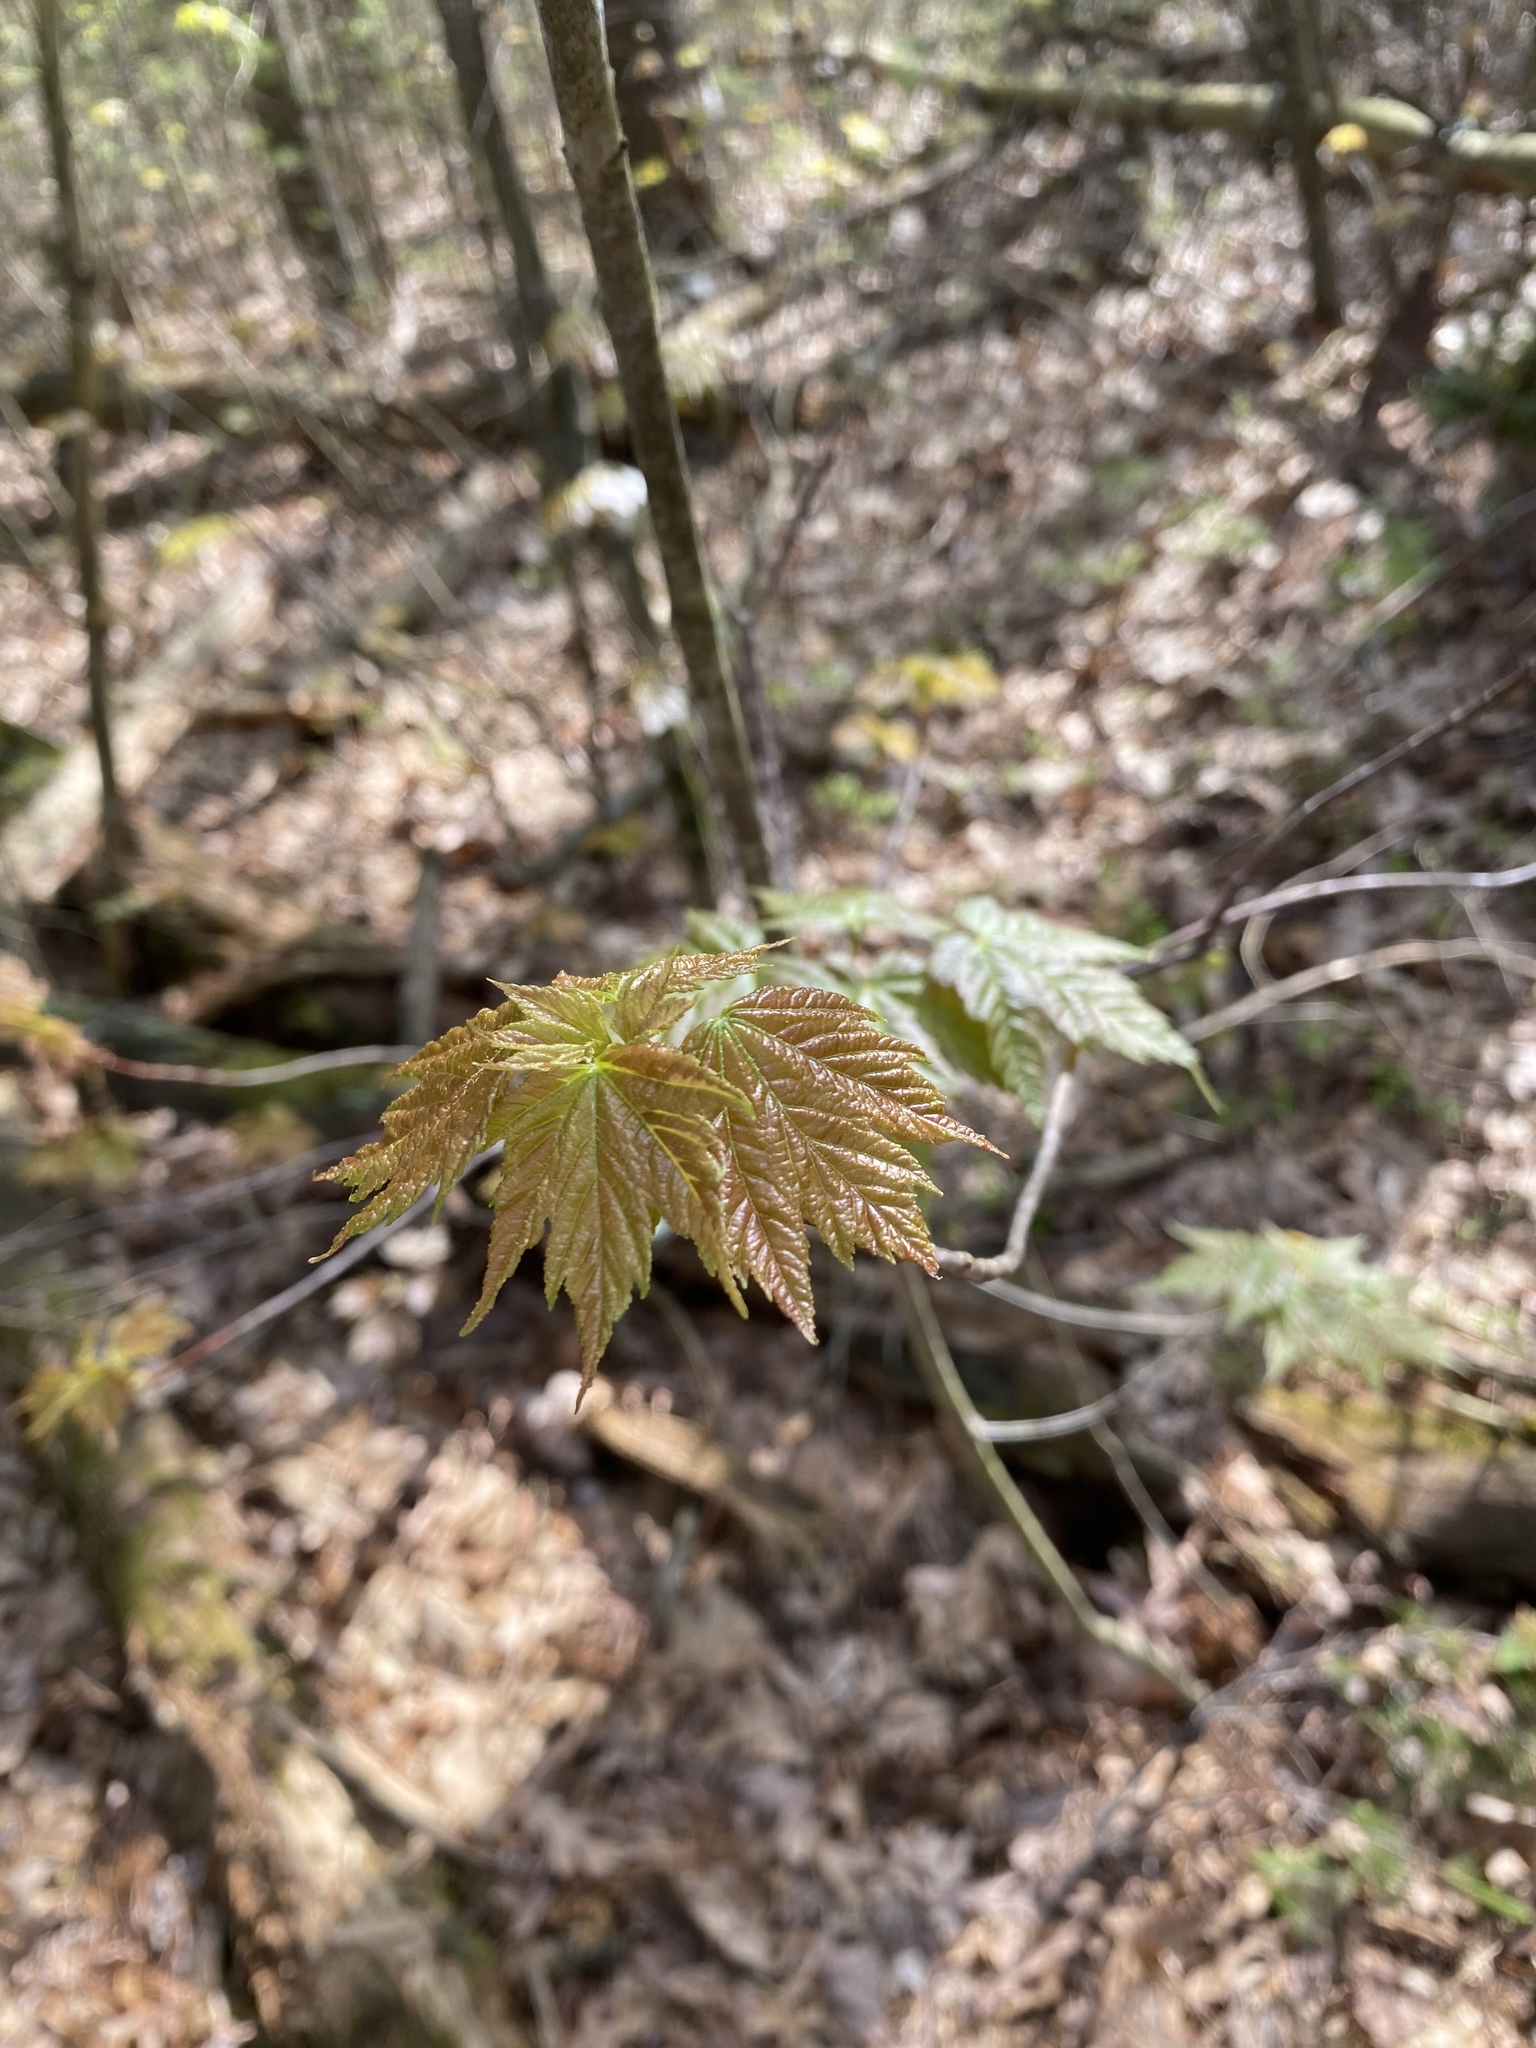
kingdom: Plantae
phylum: Tracheophyta
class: Magnoliopsida
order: Sapindales
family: Sapindaceae
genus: Acer
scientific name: Acer rubrum
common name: Red maple
